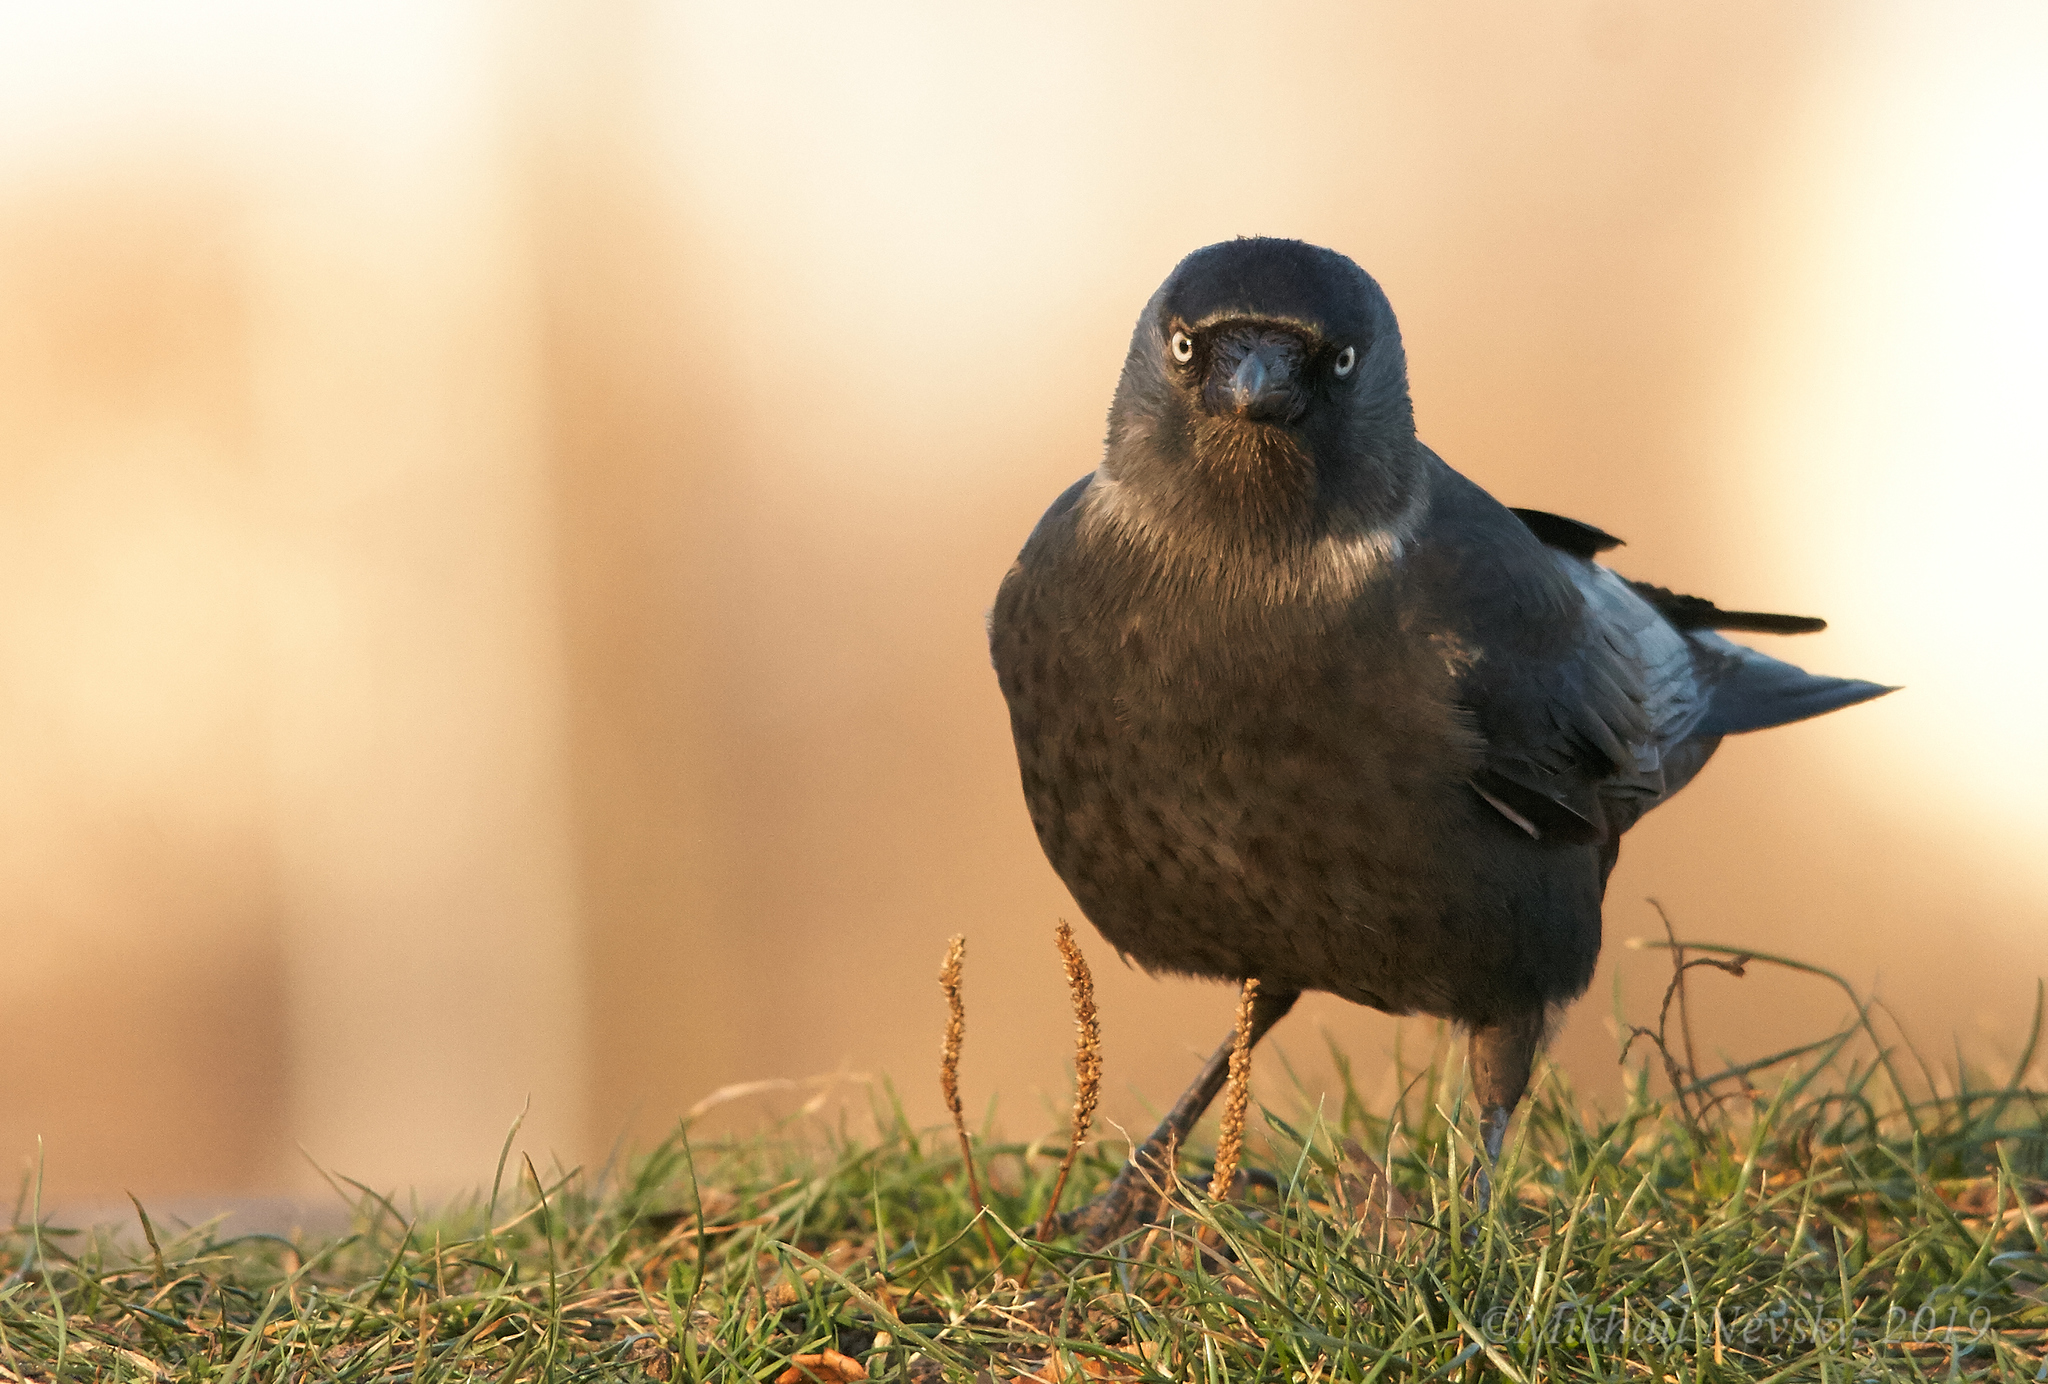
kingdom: Animalia
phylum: Chordata
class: Aves
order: Passeriformes
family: Corvidae
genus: Coloeus
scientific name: Coloeus monedula
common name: Western jackdaw
